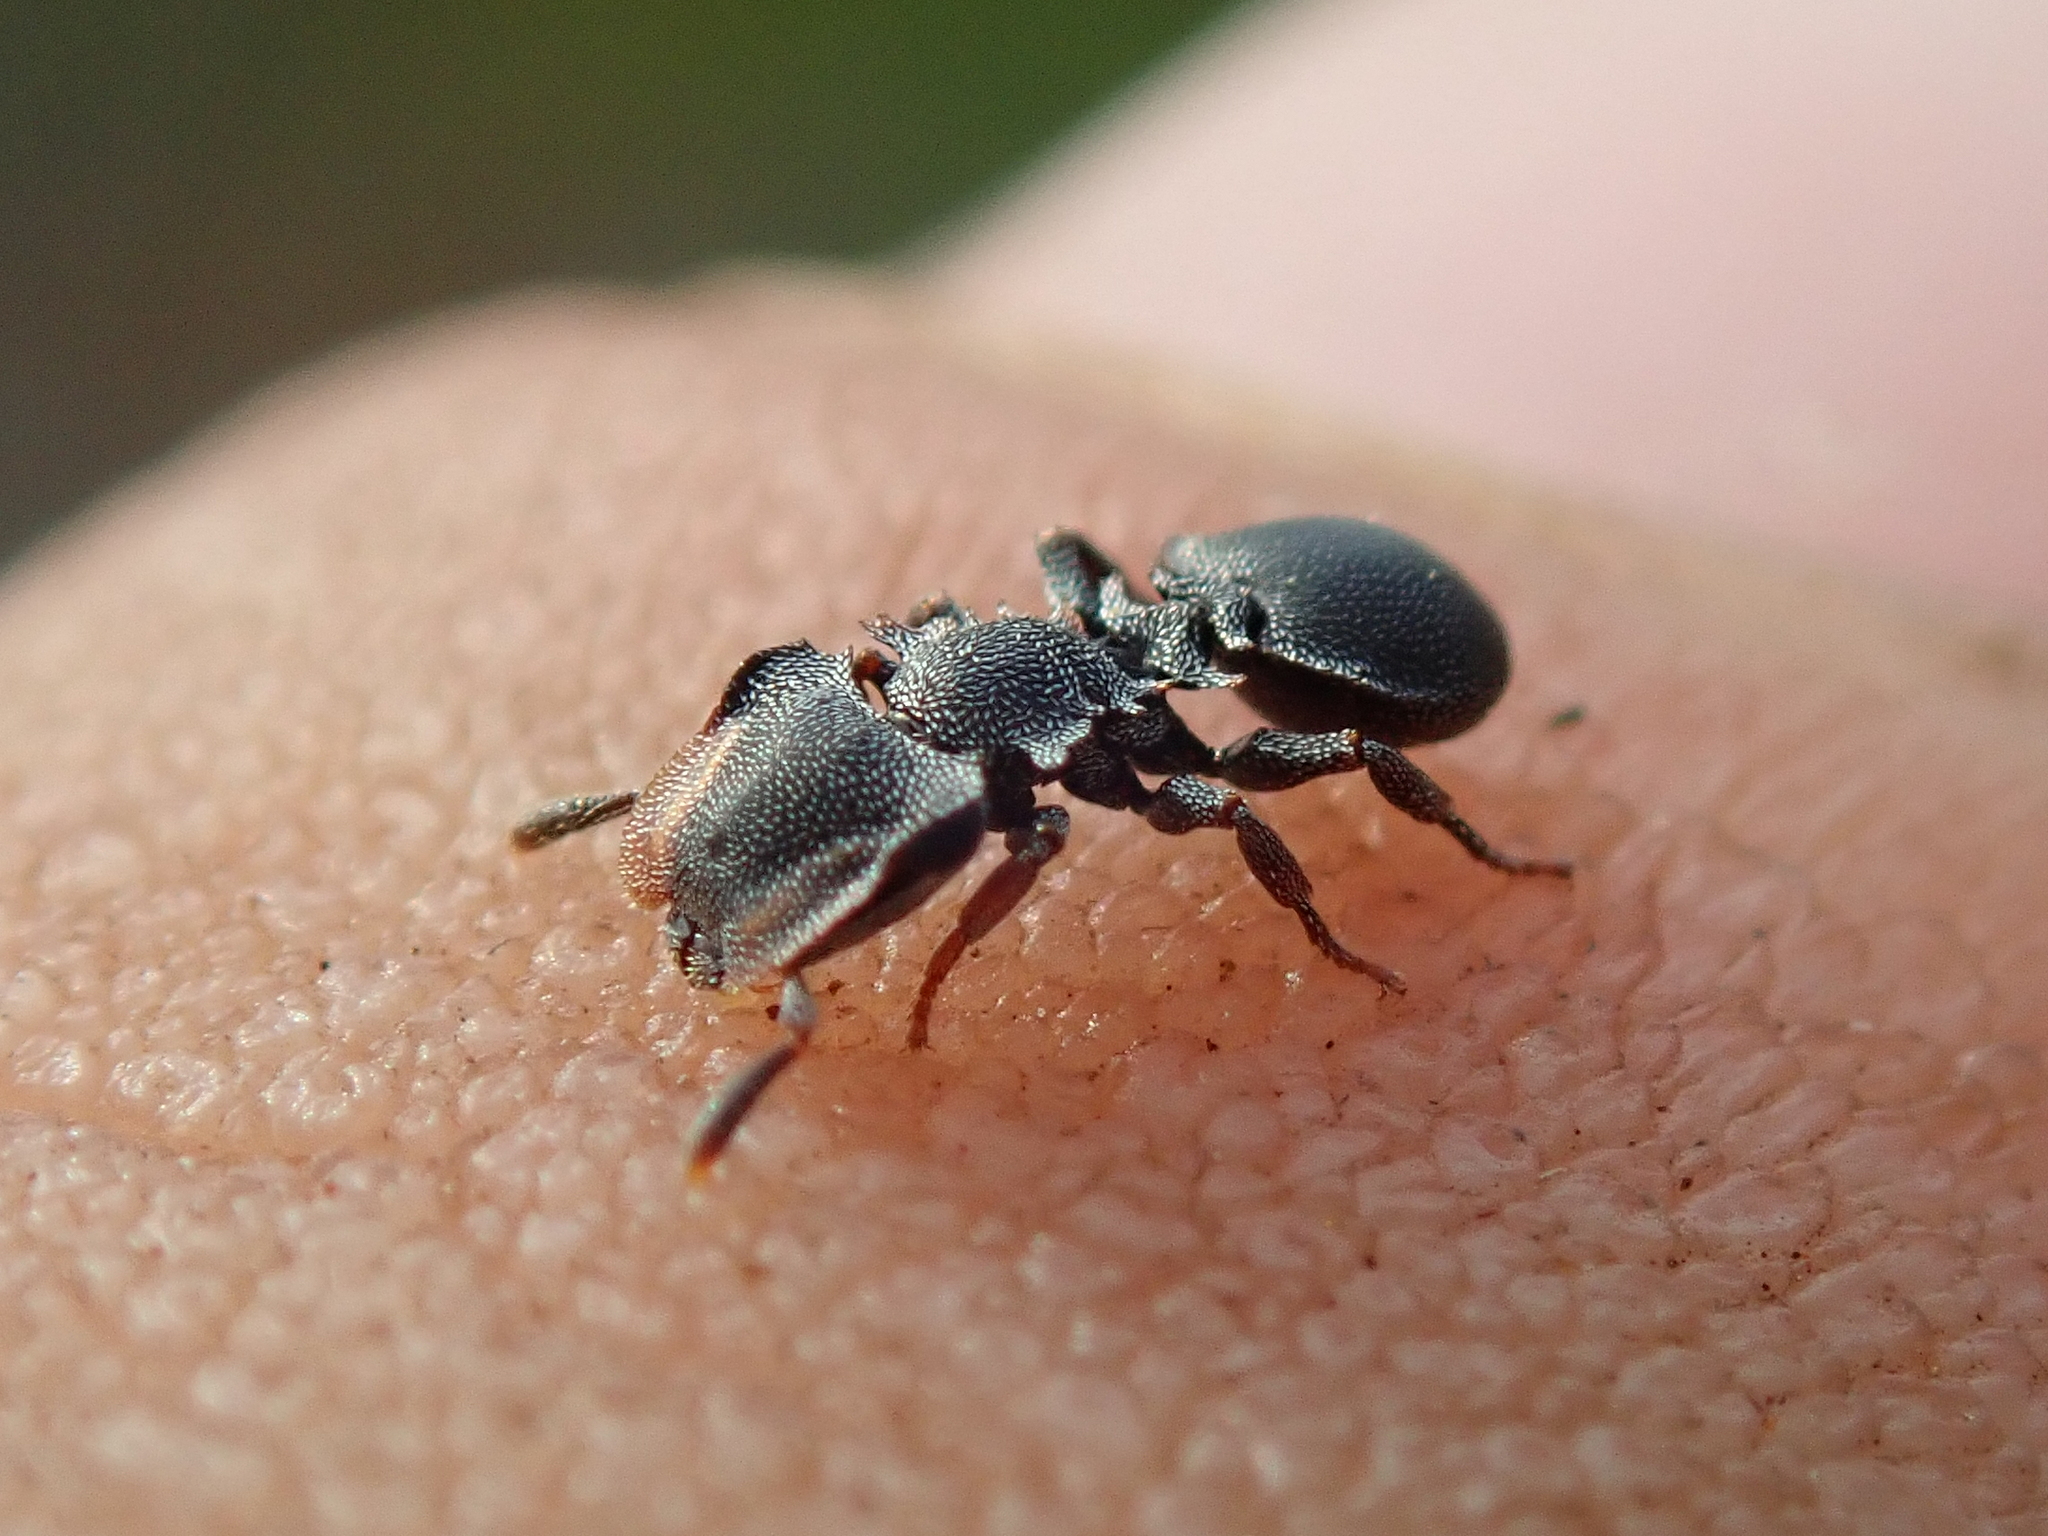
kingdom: Animalia
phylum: Arthropoda
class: Insecta
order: Hymenoptera
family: Formicidae
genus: Cephalotes
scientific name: Cephalotes
